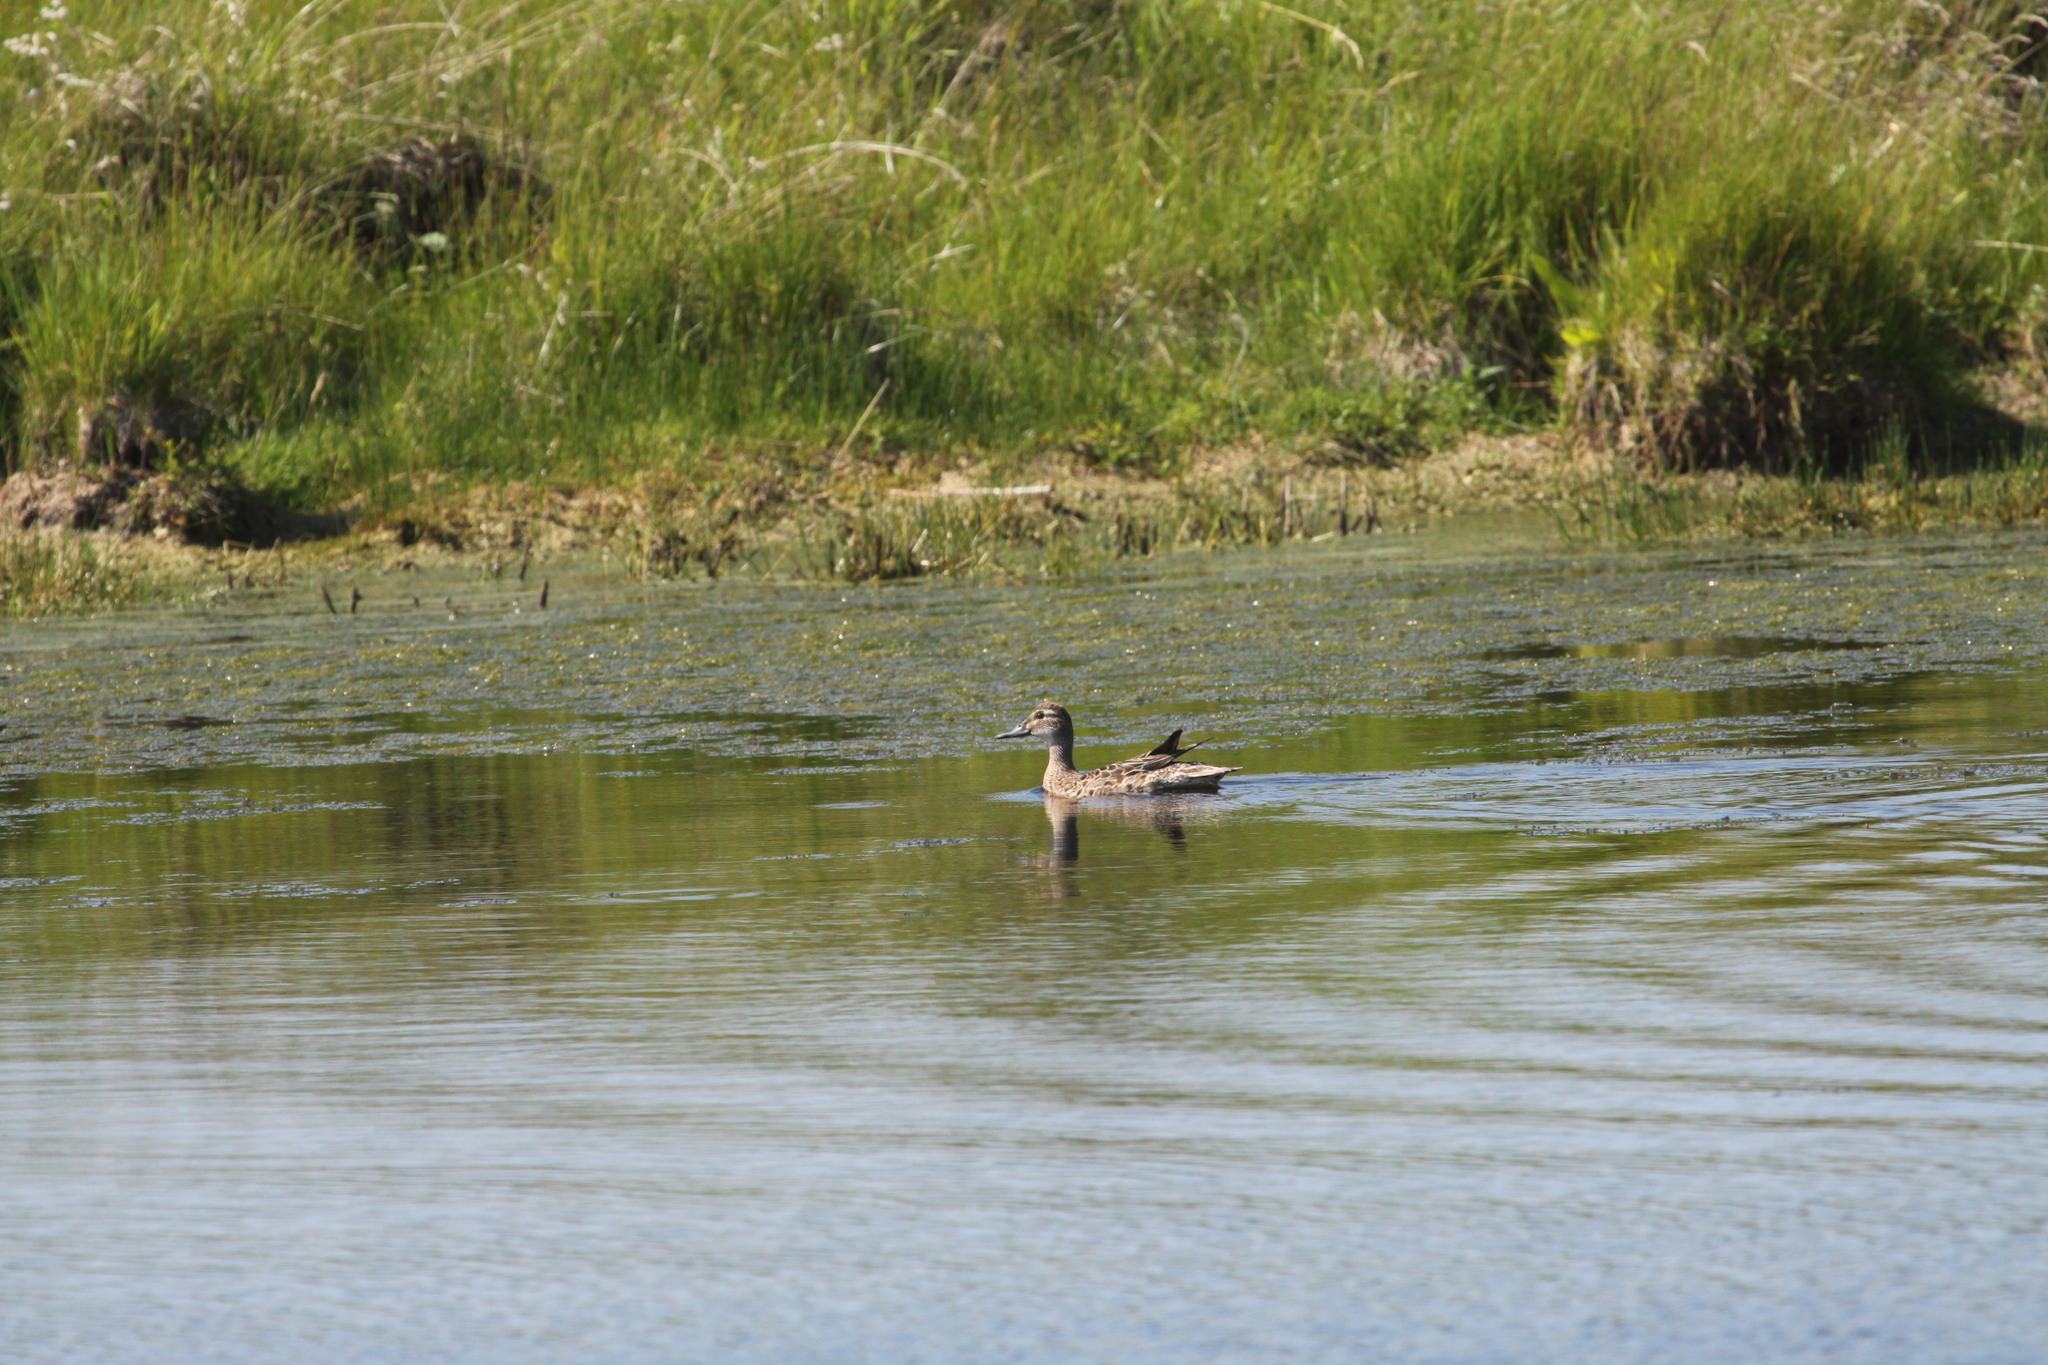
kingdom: Animalia
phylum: Chordata
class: Aves
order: Anseriformes
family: Anatidae
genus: Spatula
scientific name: Spatula querquedula
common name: Garganey
